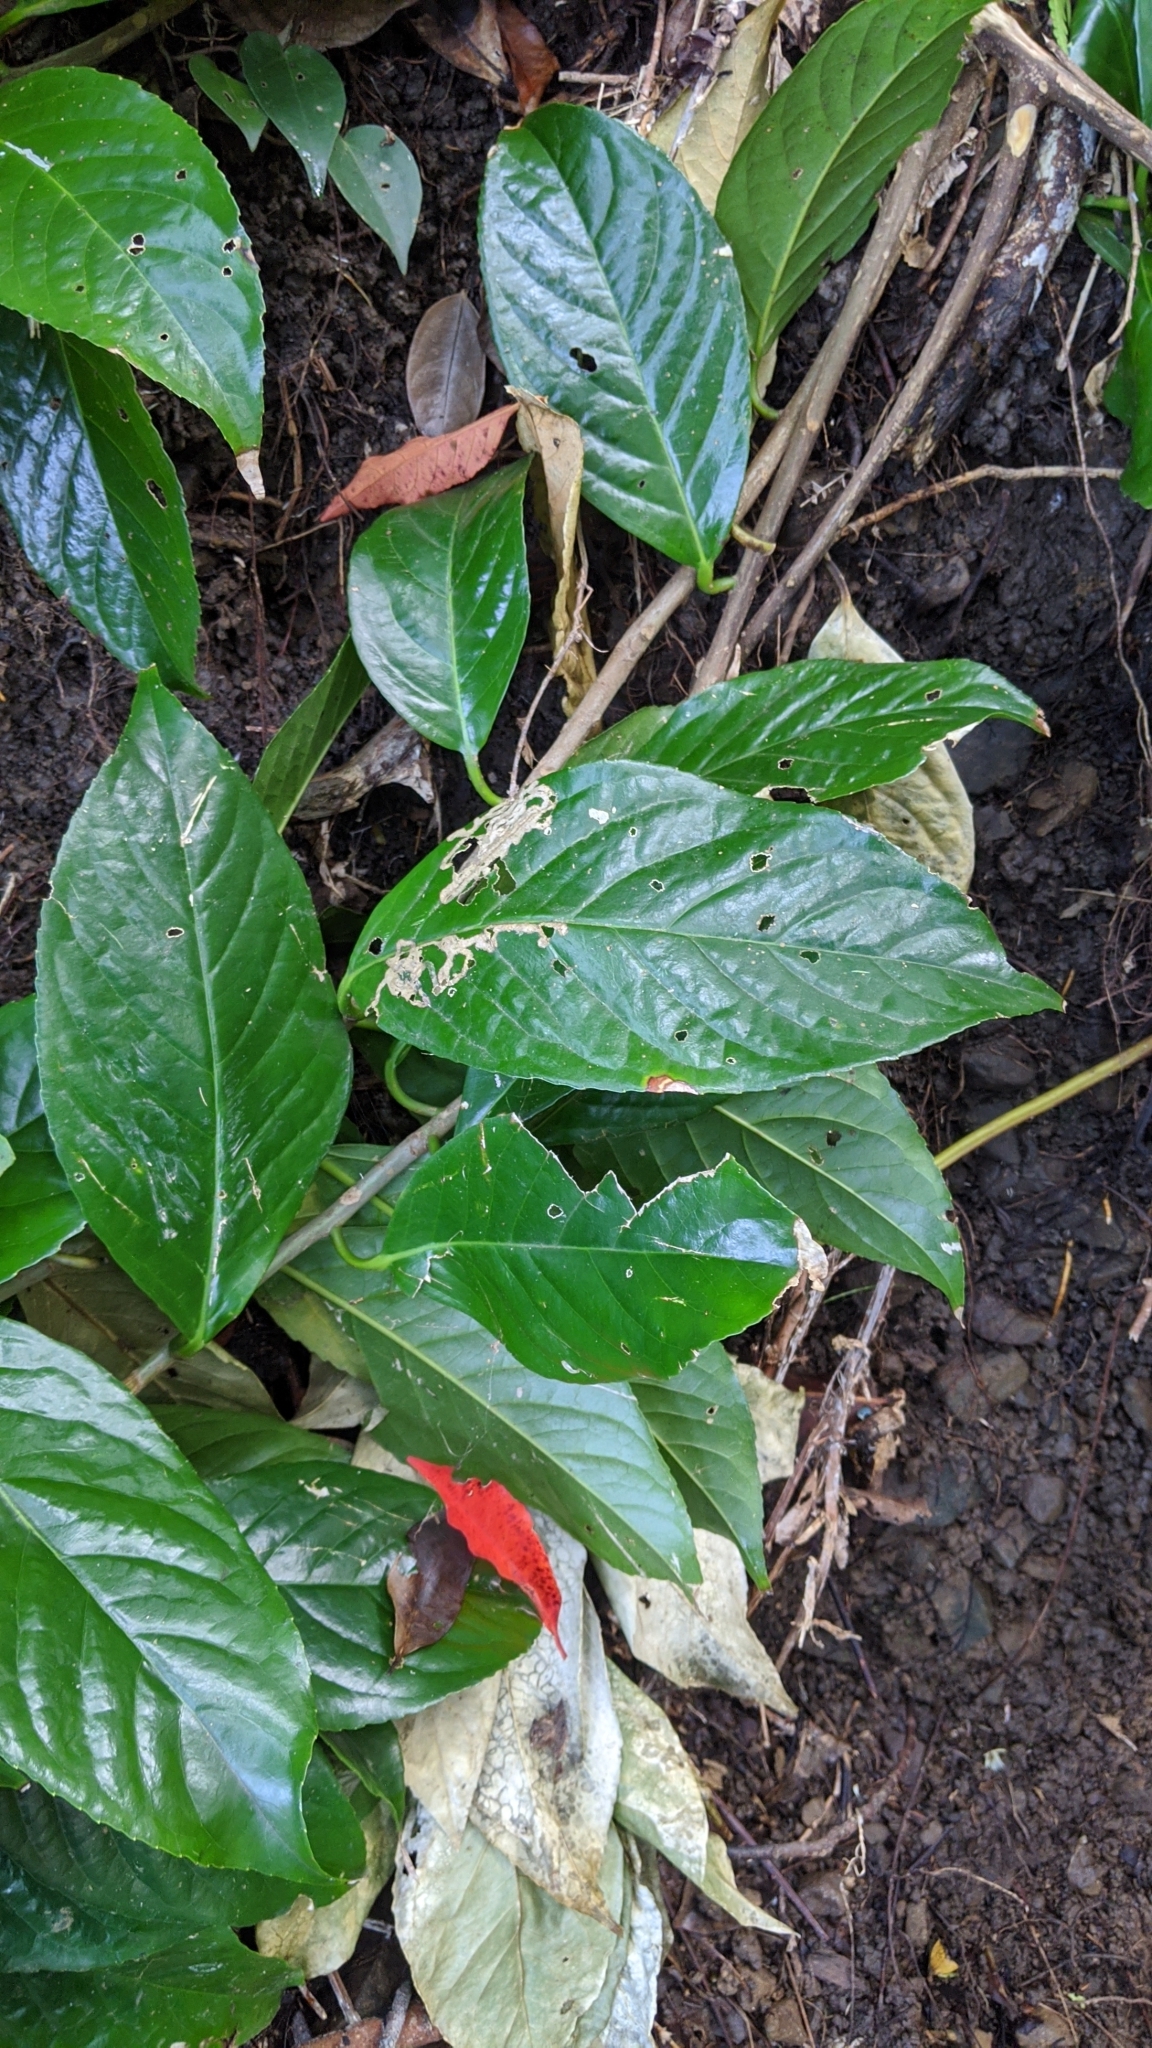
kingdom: Plantae
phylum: Tracheophyta
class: Magnoliopsida
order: Ericales
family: Symplocaceae
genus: Symplocos
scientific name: Symplocos cochinchinensis
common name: Buff hazelwood
